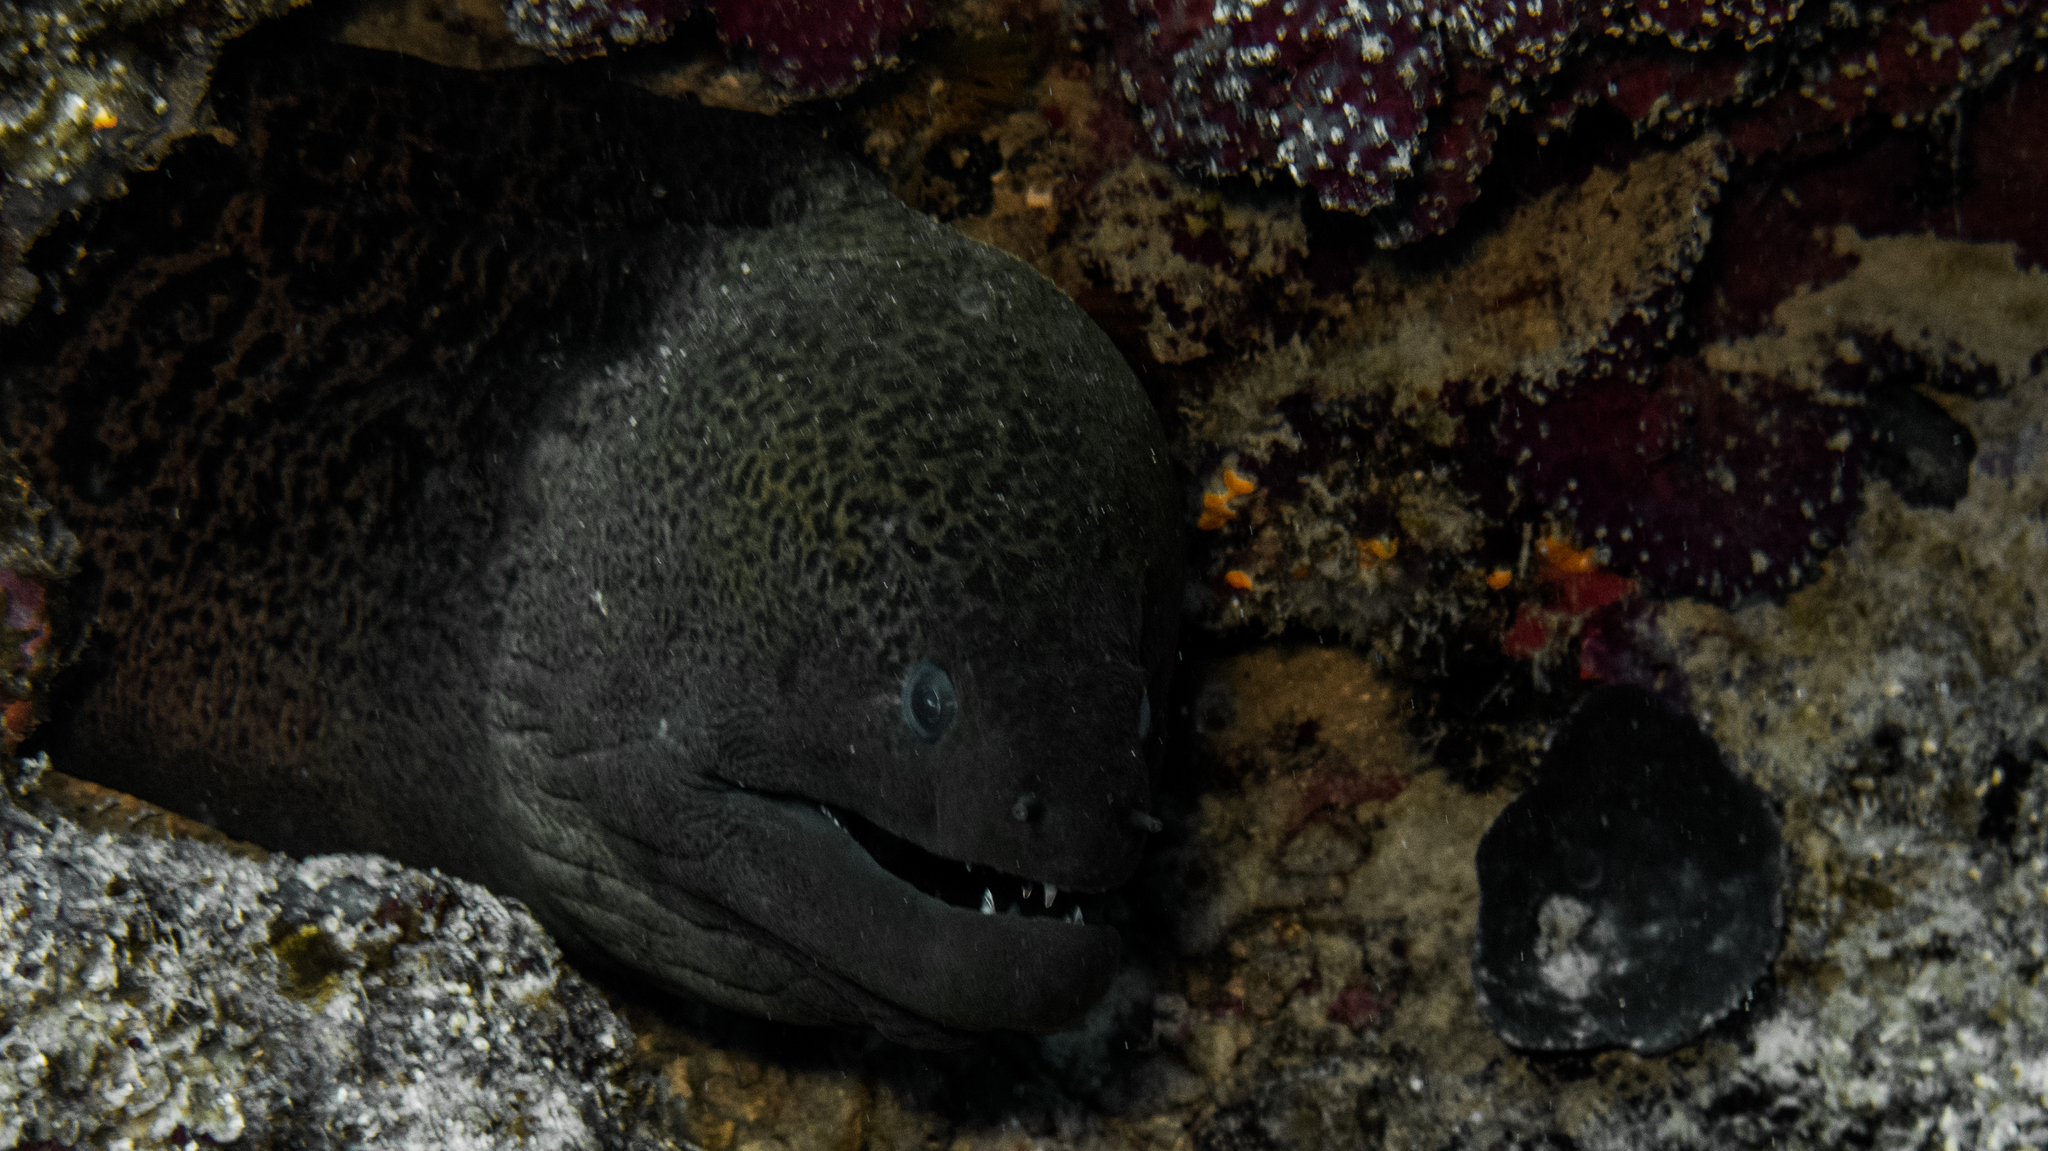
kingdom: Animalia
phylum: Chordata
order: Anguilliformes
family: Muraenidae
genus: Gymnothorax
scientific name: Gymnothorax javanicus
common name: Giant moray
